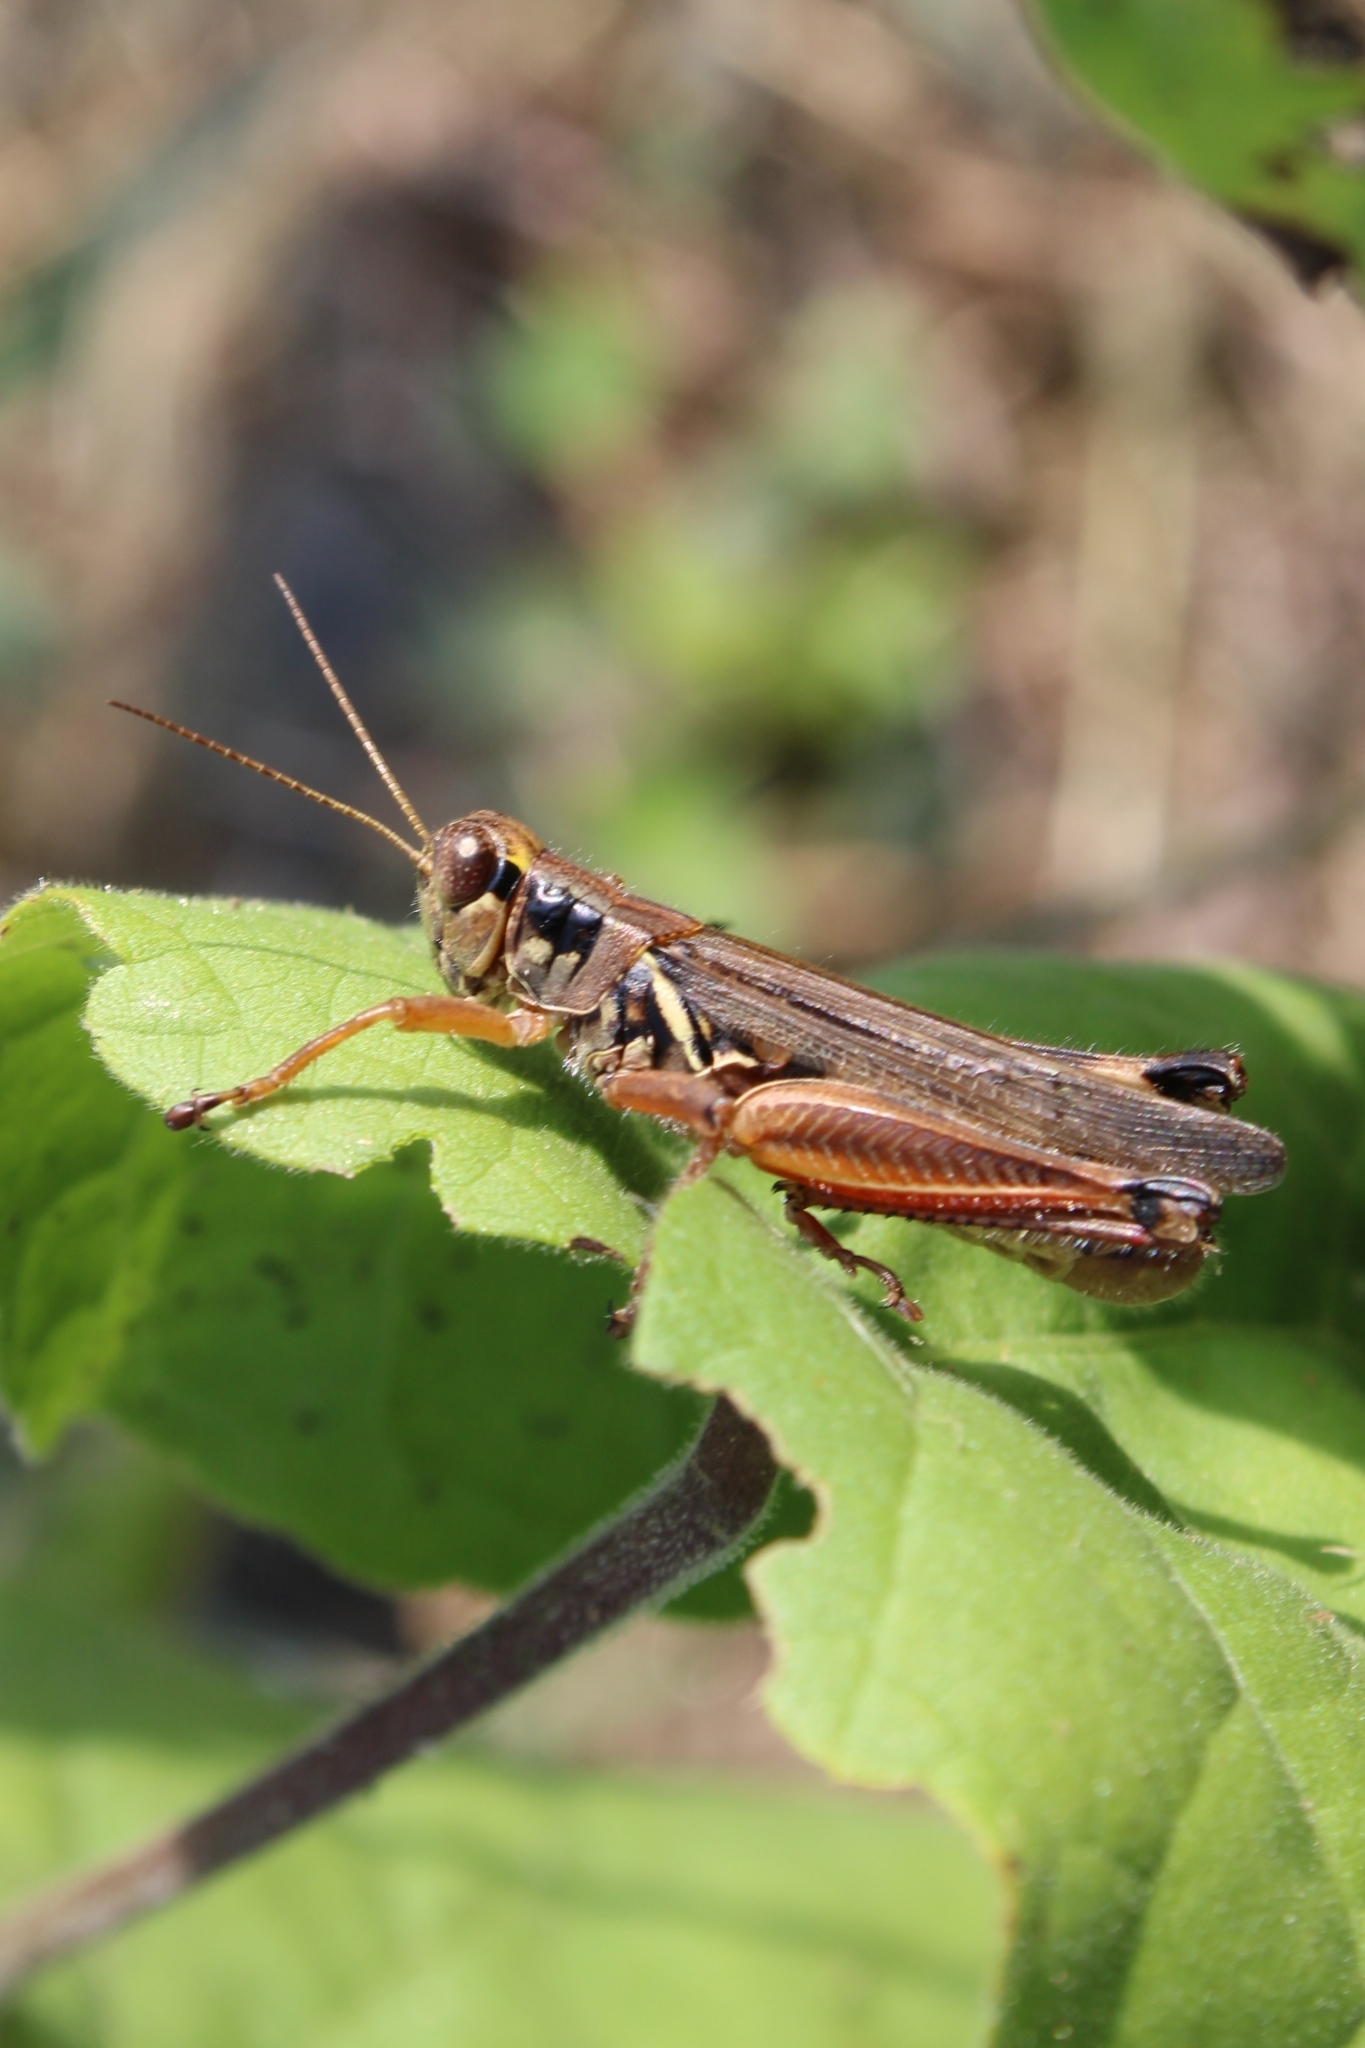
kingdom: Animalia
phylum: Arthropoda
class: Insecta
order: Orthoptera
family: Acrididae
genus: Melanoplus
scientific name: Melanoplus femurrubrum
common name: Red-legged grasshopper
